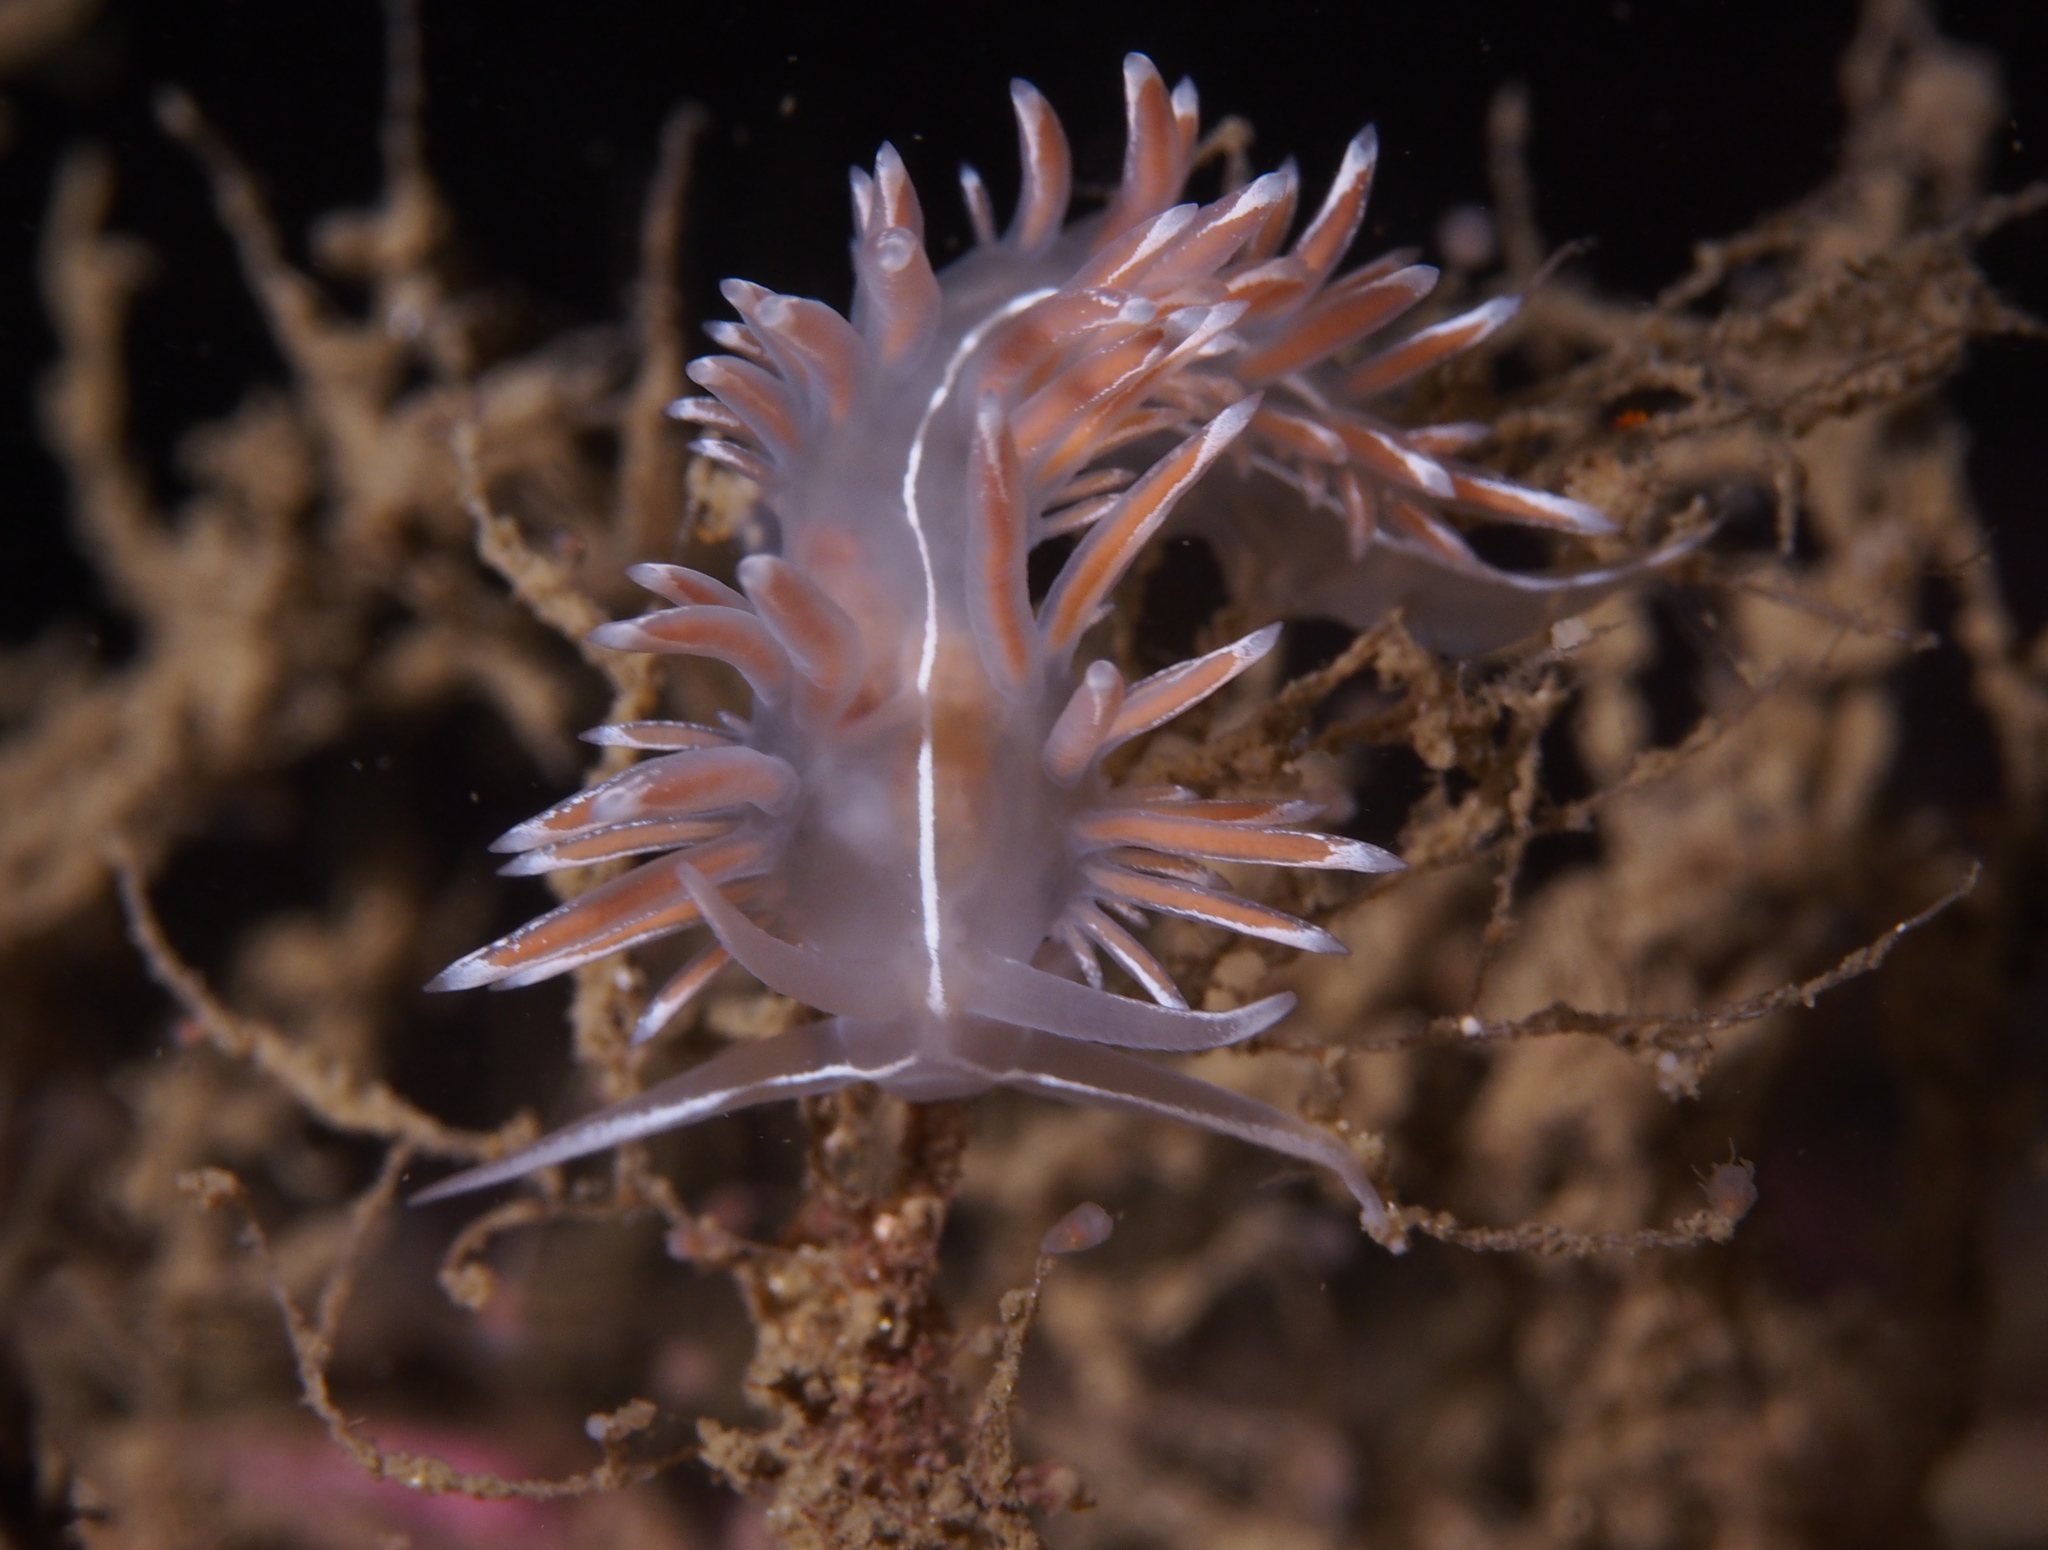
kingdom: Animalia
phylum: Mollusca
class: Gastropoda
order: Nudibranchia
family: Coryphellidae
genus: Coryphella
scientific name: Coryphella lineata
